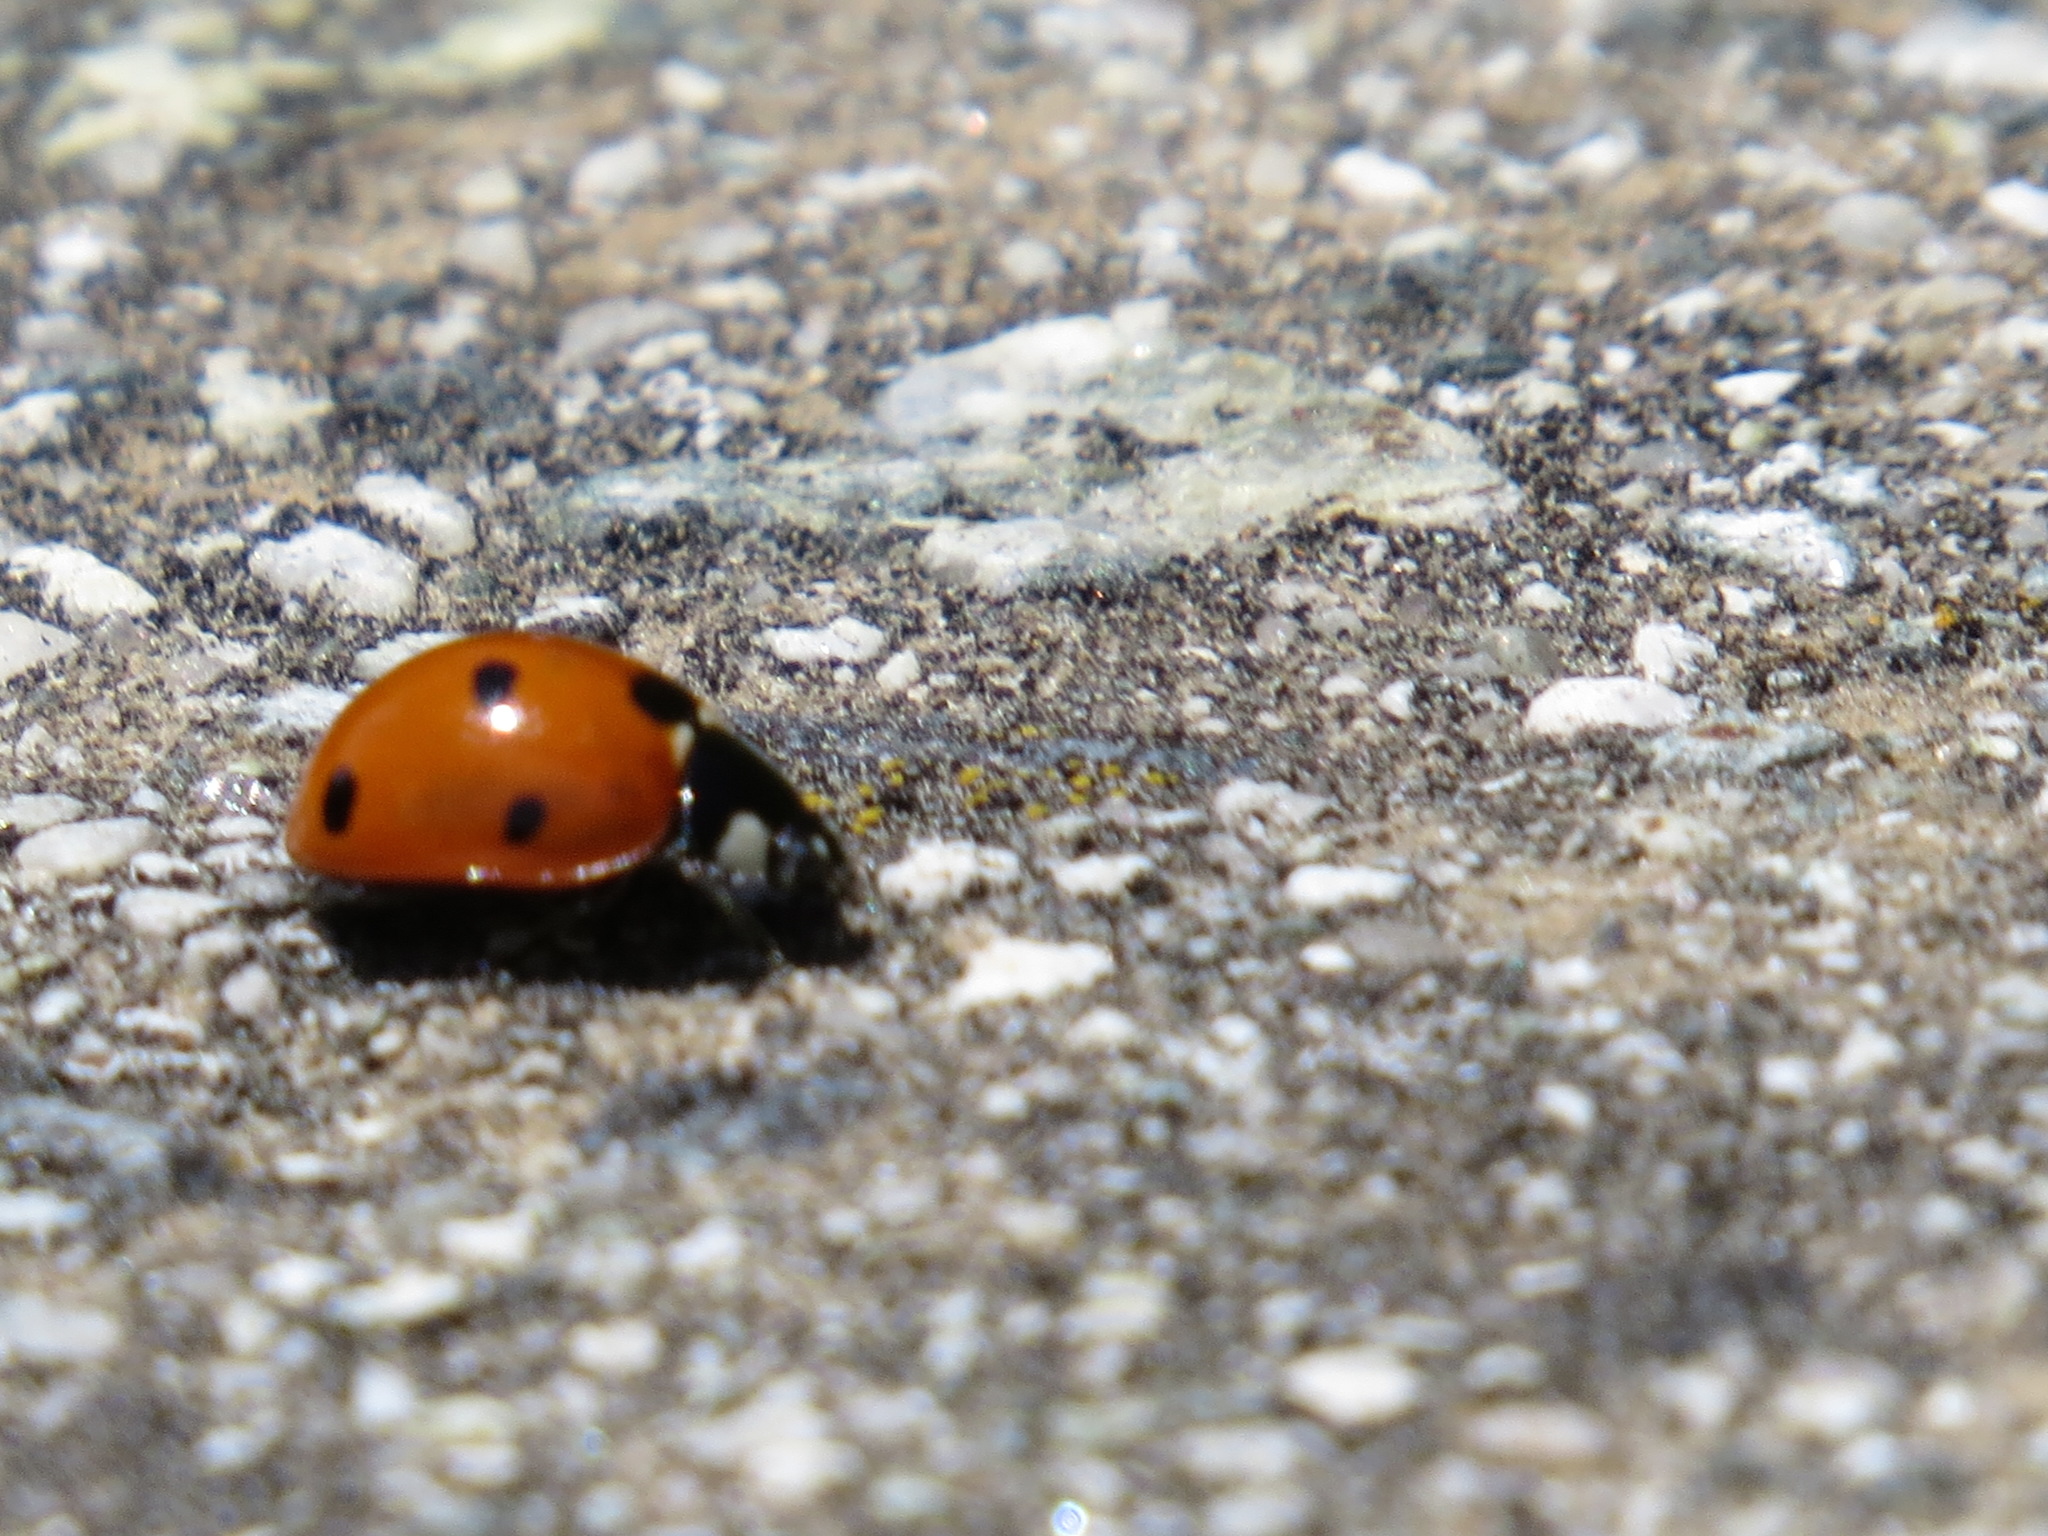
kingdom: Animalia
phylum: Arthropoda
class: Insecta
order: Coleoptera
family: Coccinellidae
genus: Coccinella
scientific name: Coccinella septempunctata
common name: Sevenspotted lady beetle
